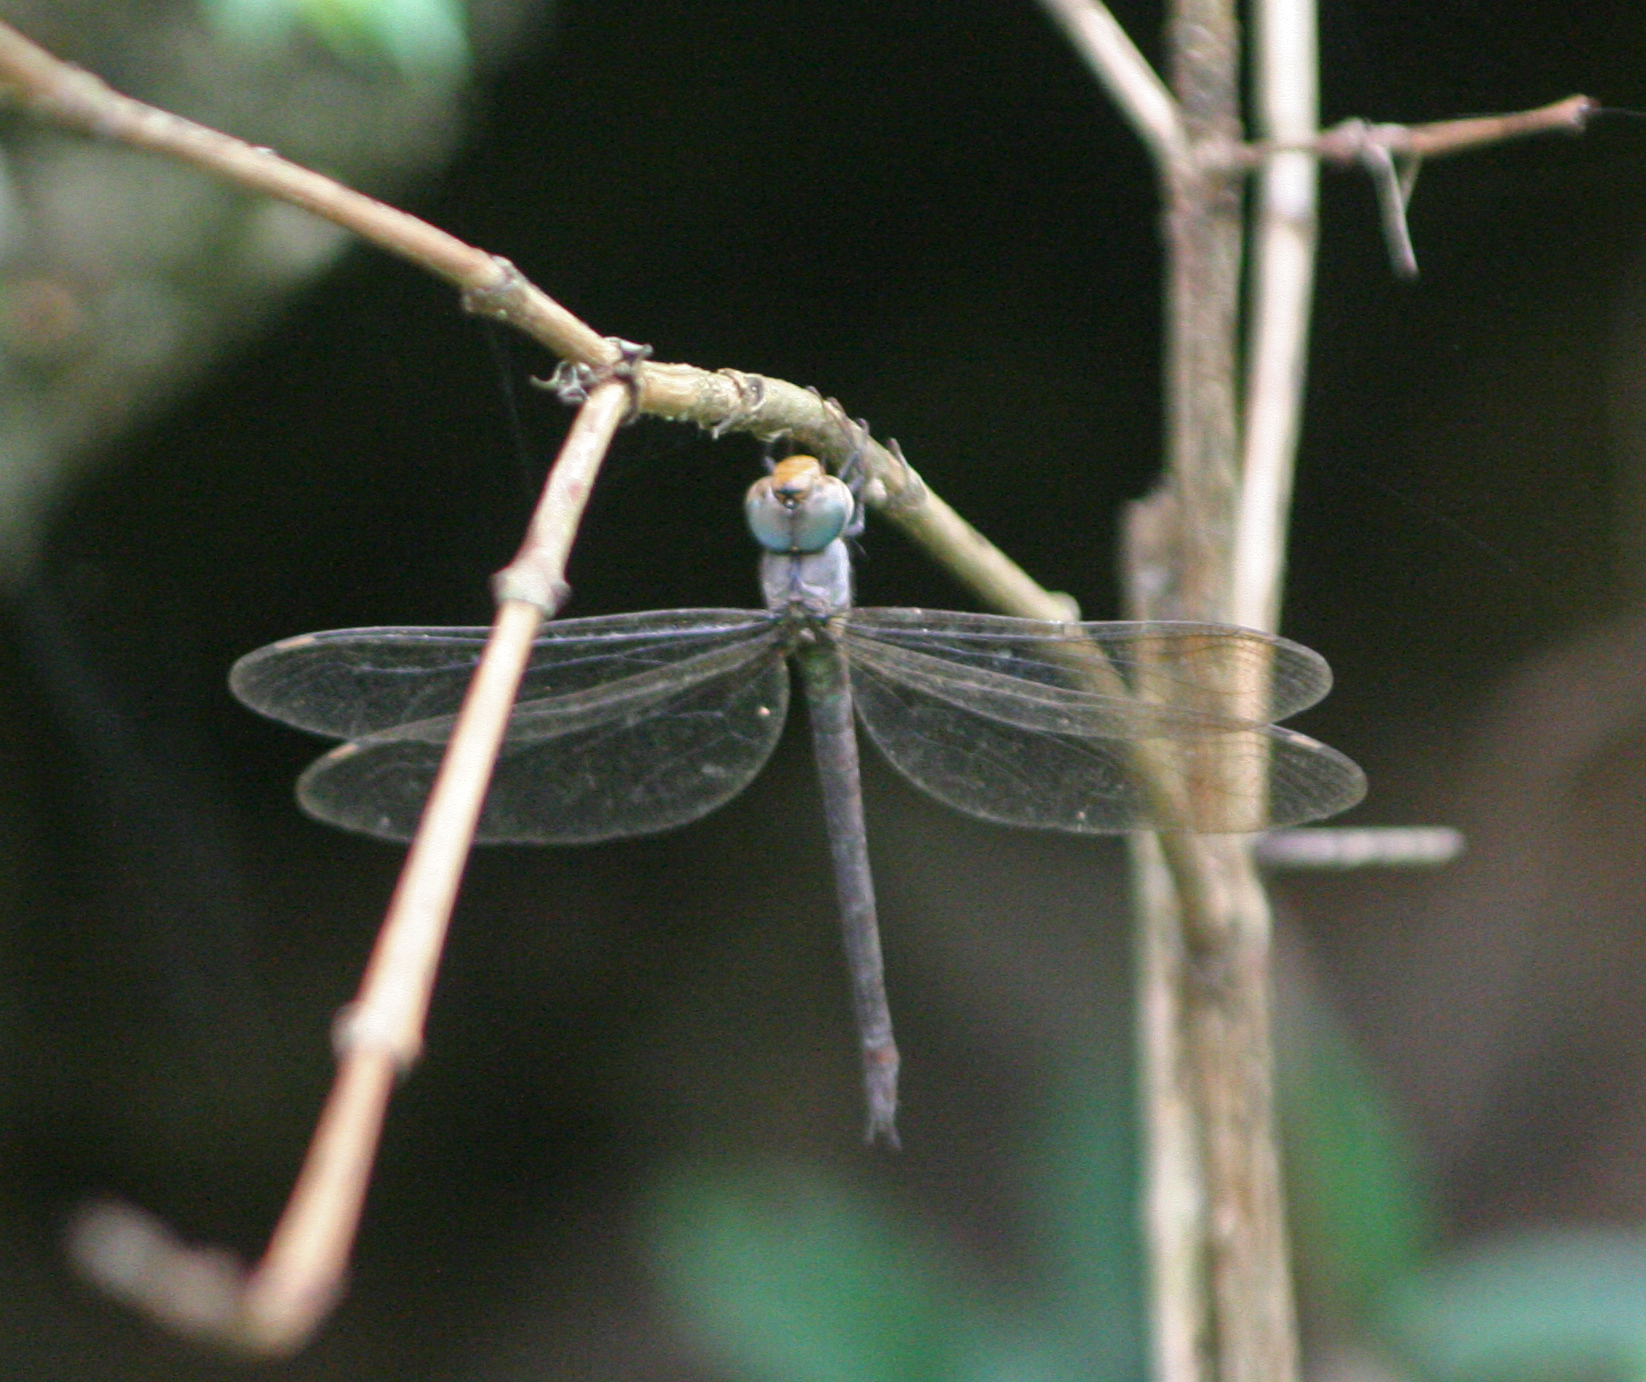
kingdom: Animalia
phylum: Arthropoda
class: Insecta
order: Odonata
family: Aeshnidae
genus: Heliaeschna
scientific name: Heliaeschna simplicia
